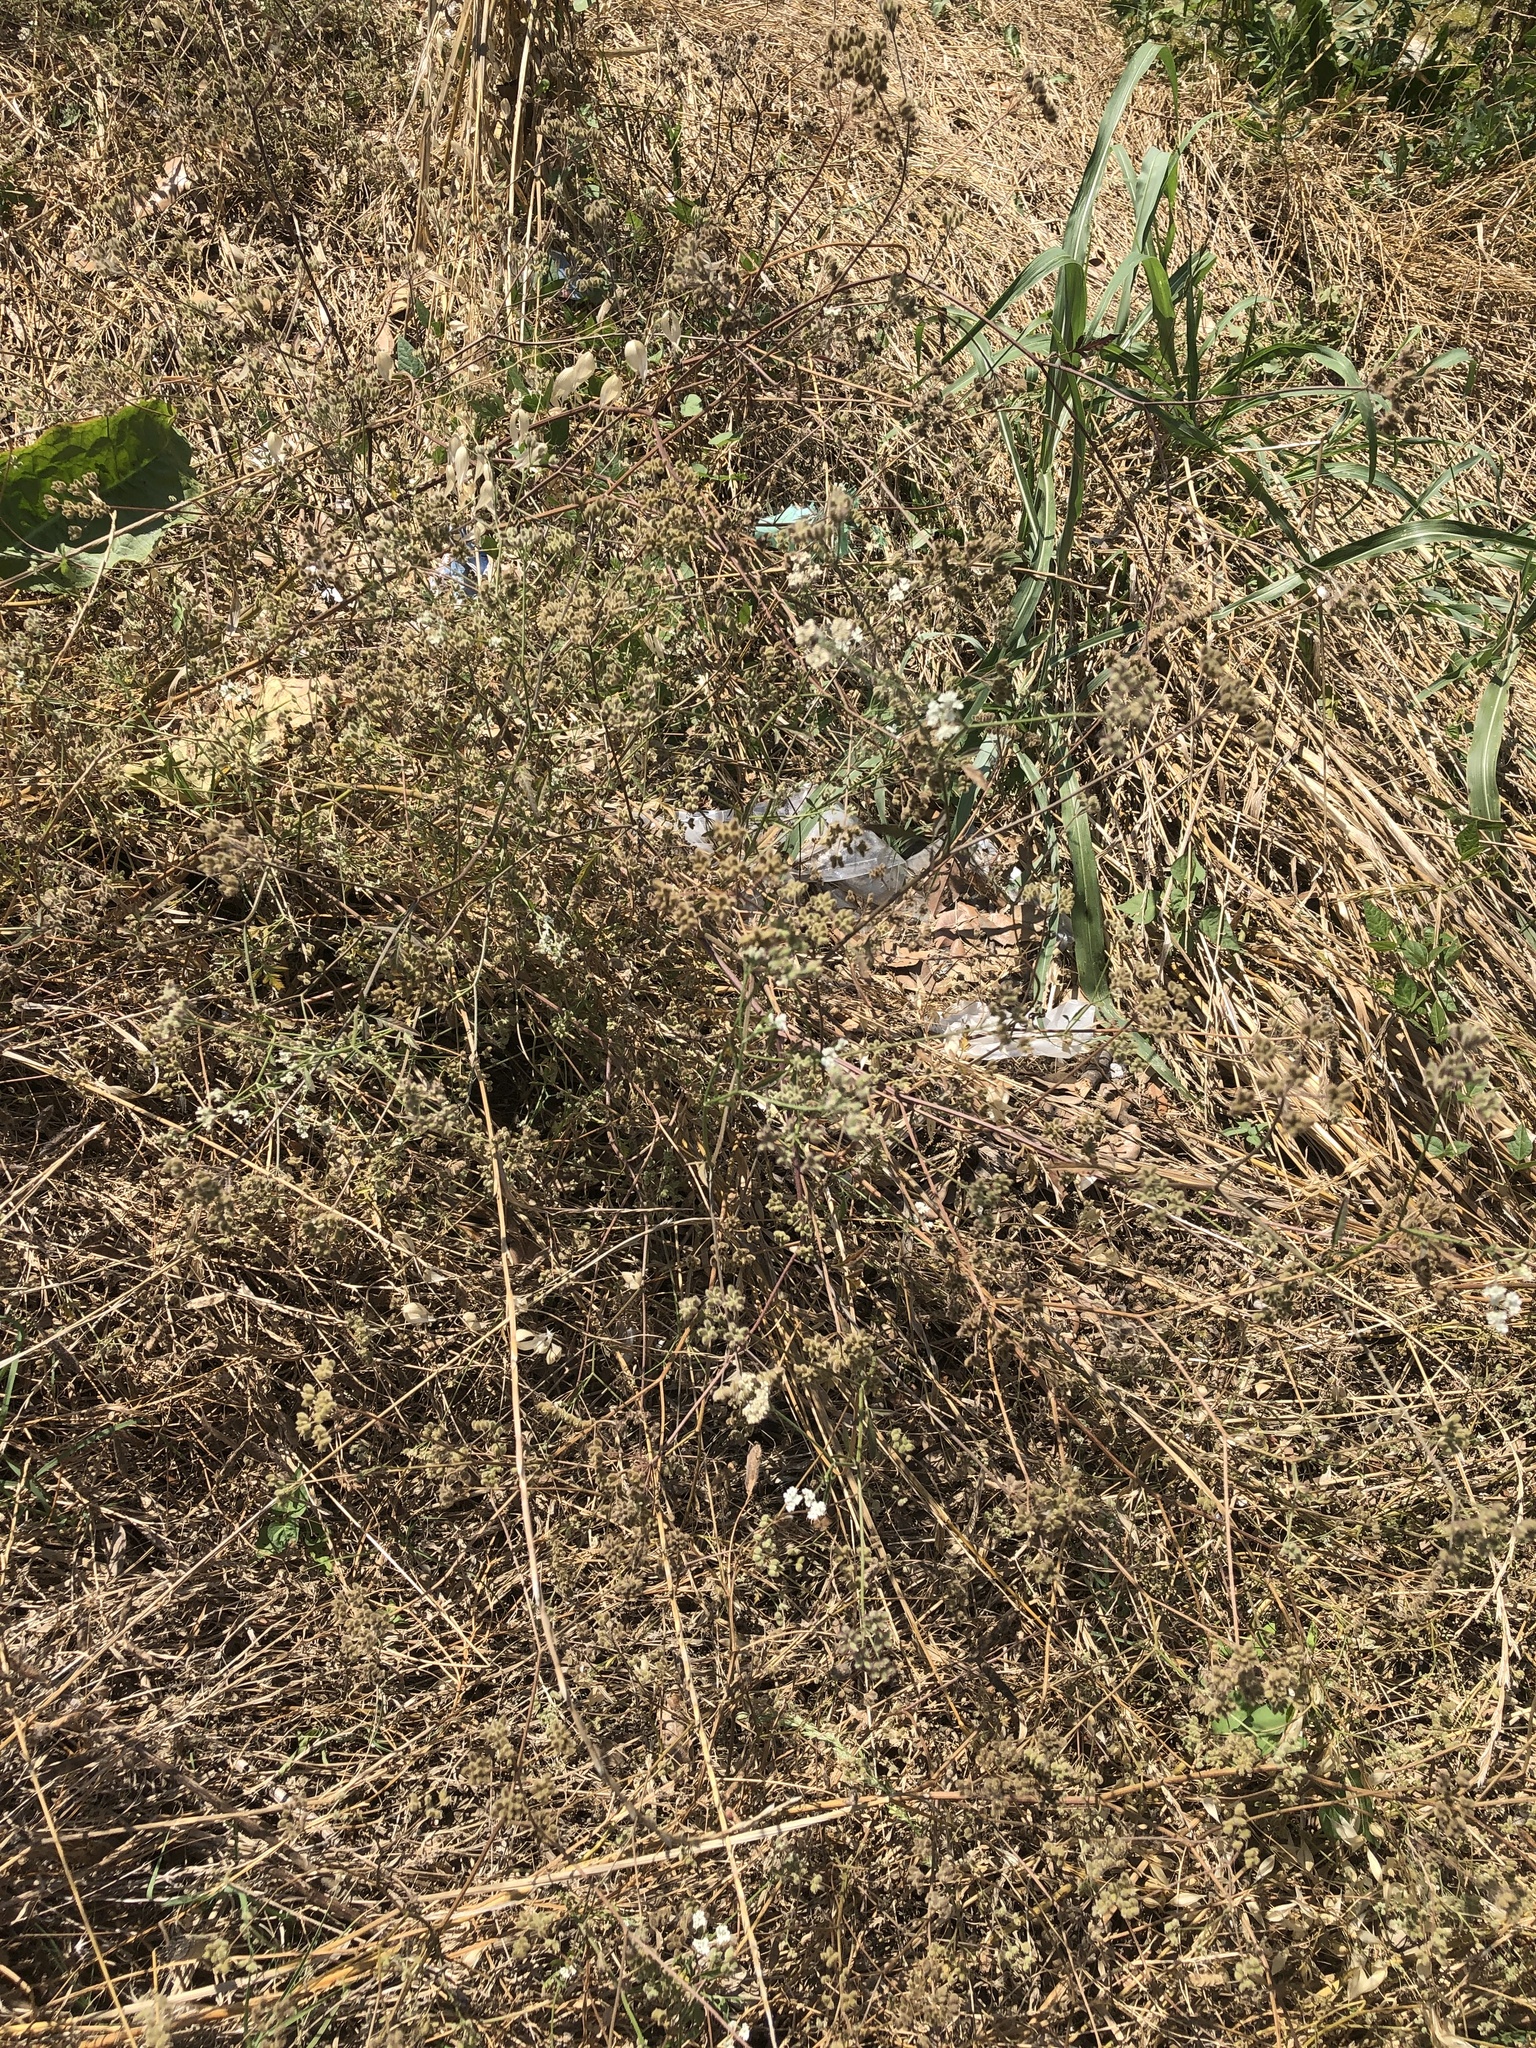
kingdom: Plantae
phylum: Tracheophyta
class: Magnoliopsida
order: Apiales
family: Apiaceae
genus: Torilis
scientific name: Torilis arvensis
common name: Spreading hedge-parsley
